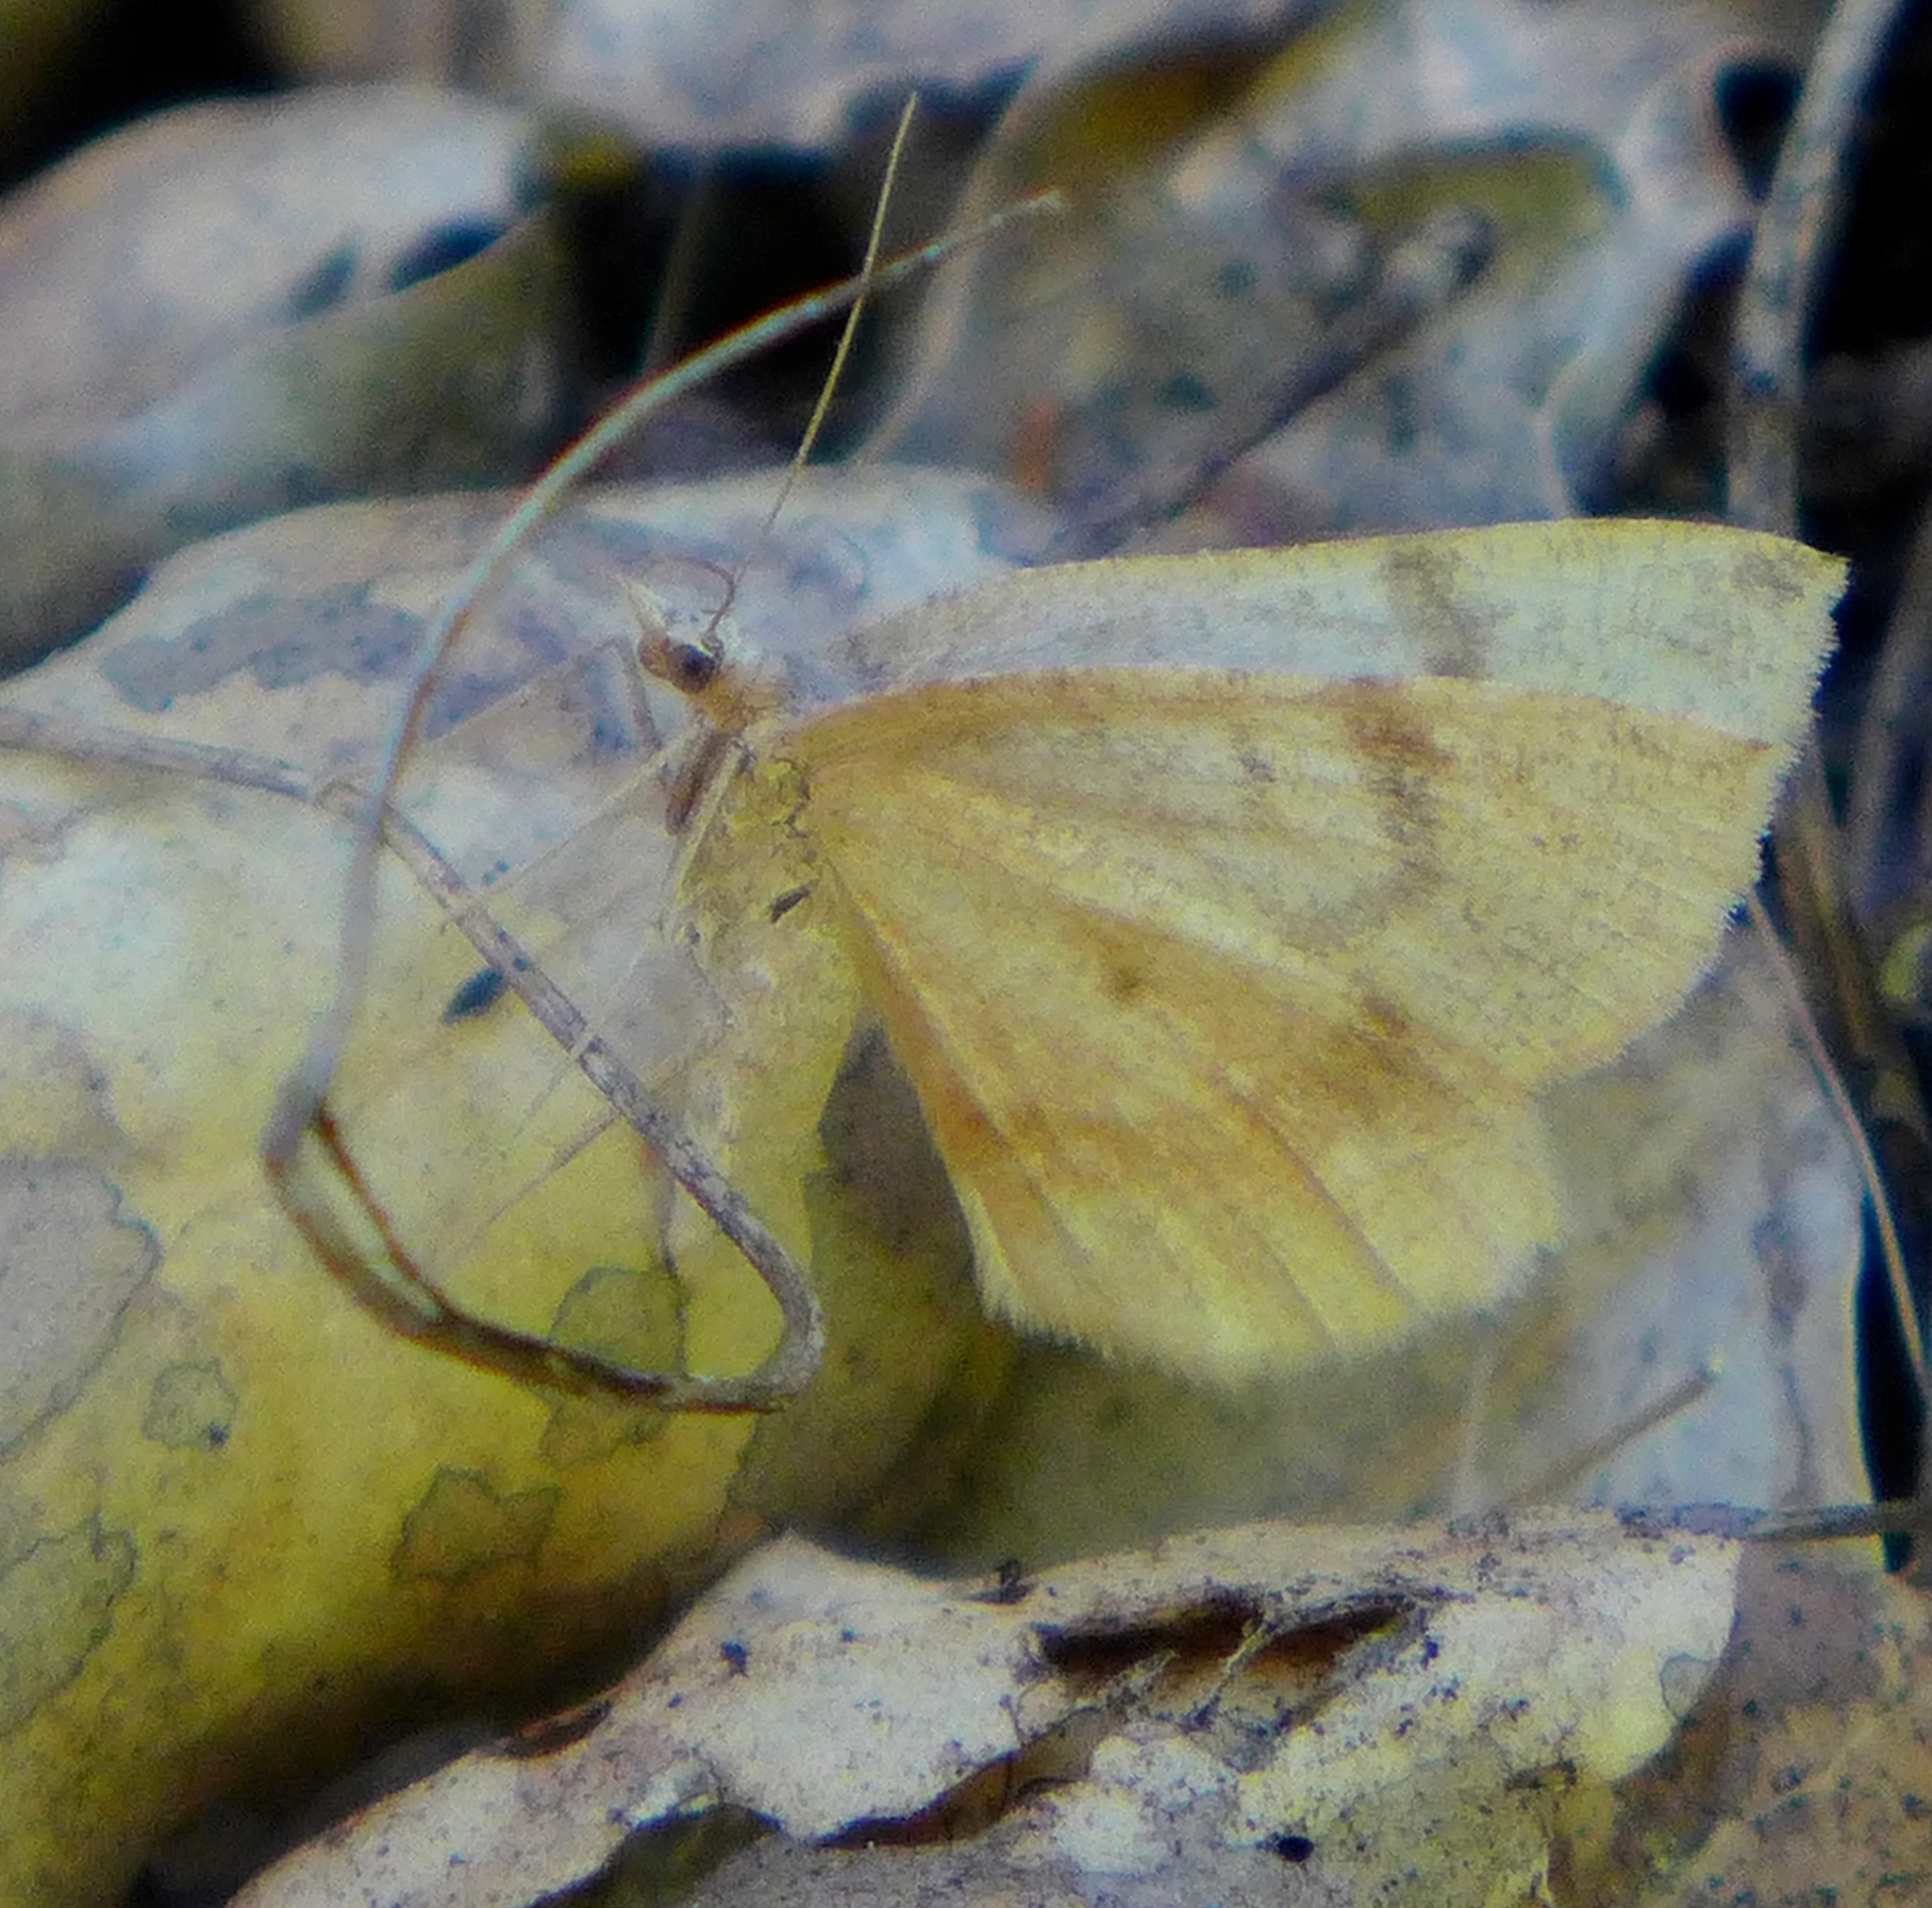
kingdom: Animalia
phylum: Arthropoda
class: Insecta
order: Lepidoptera
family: Geometridae
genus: Sericosema
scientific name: Sericosema juturnaria
